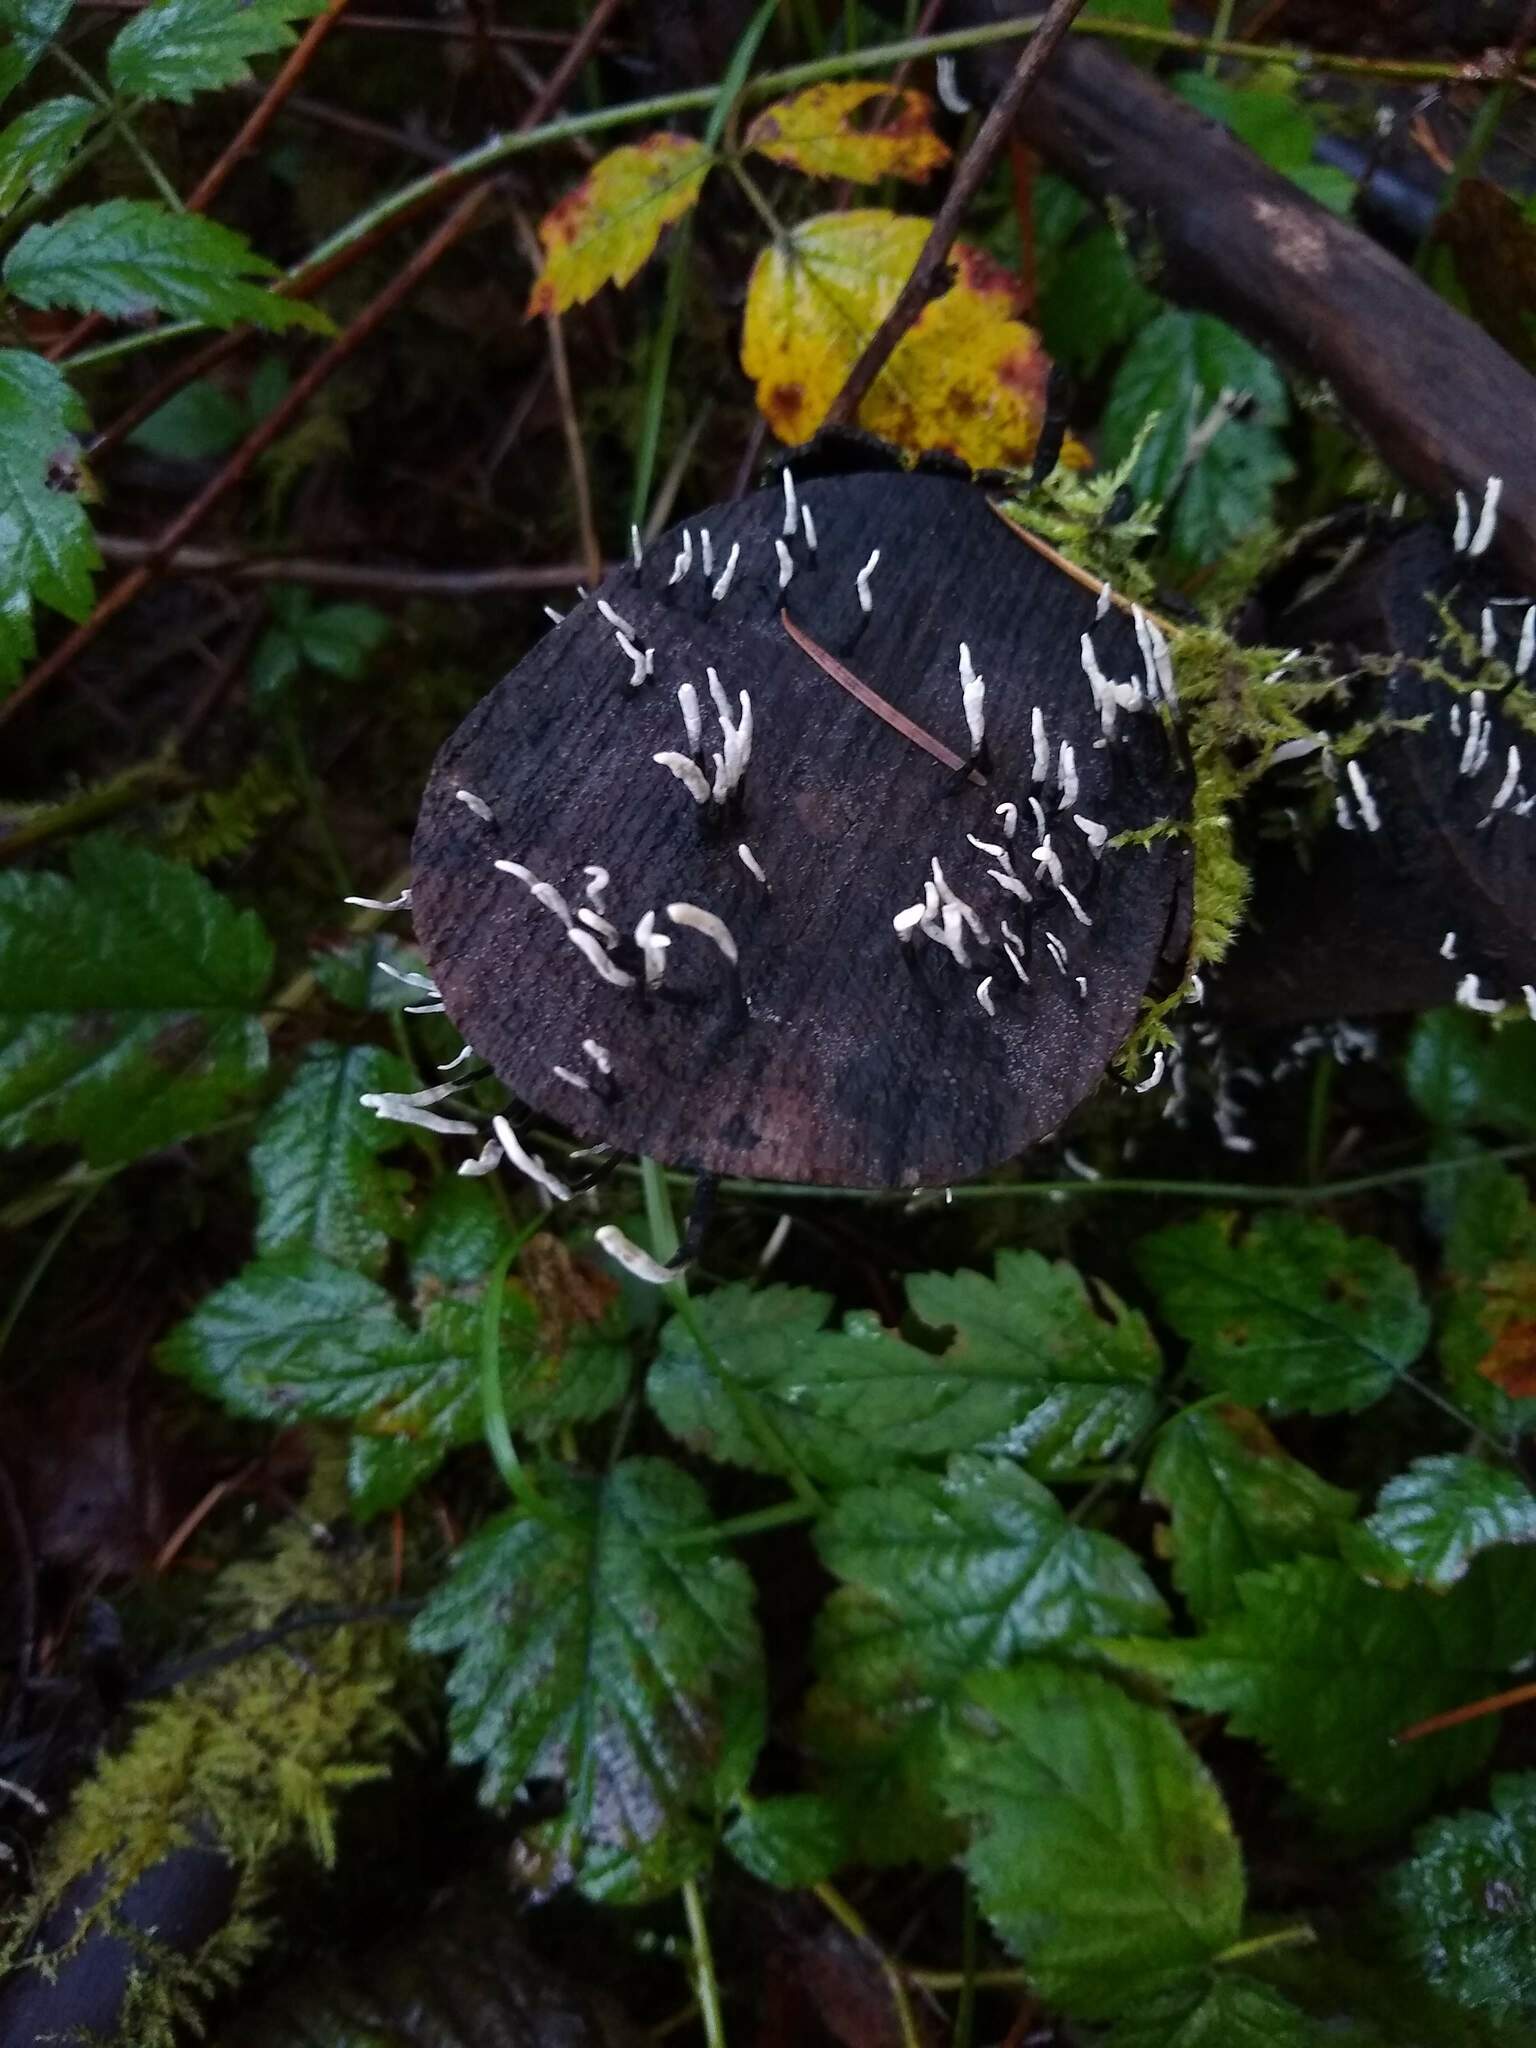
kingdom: Fungi
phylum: Ascomycota
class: Sordariomycetes
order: Xylariales
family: Xylariaceae
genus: Xylaria
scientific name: Xylaria hypoxylon
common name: Candle-snuff fungus
